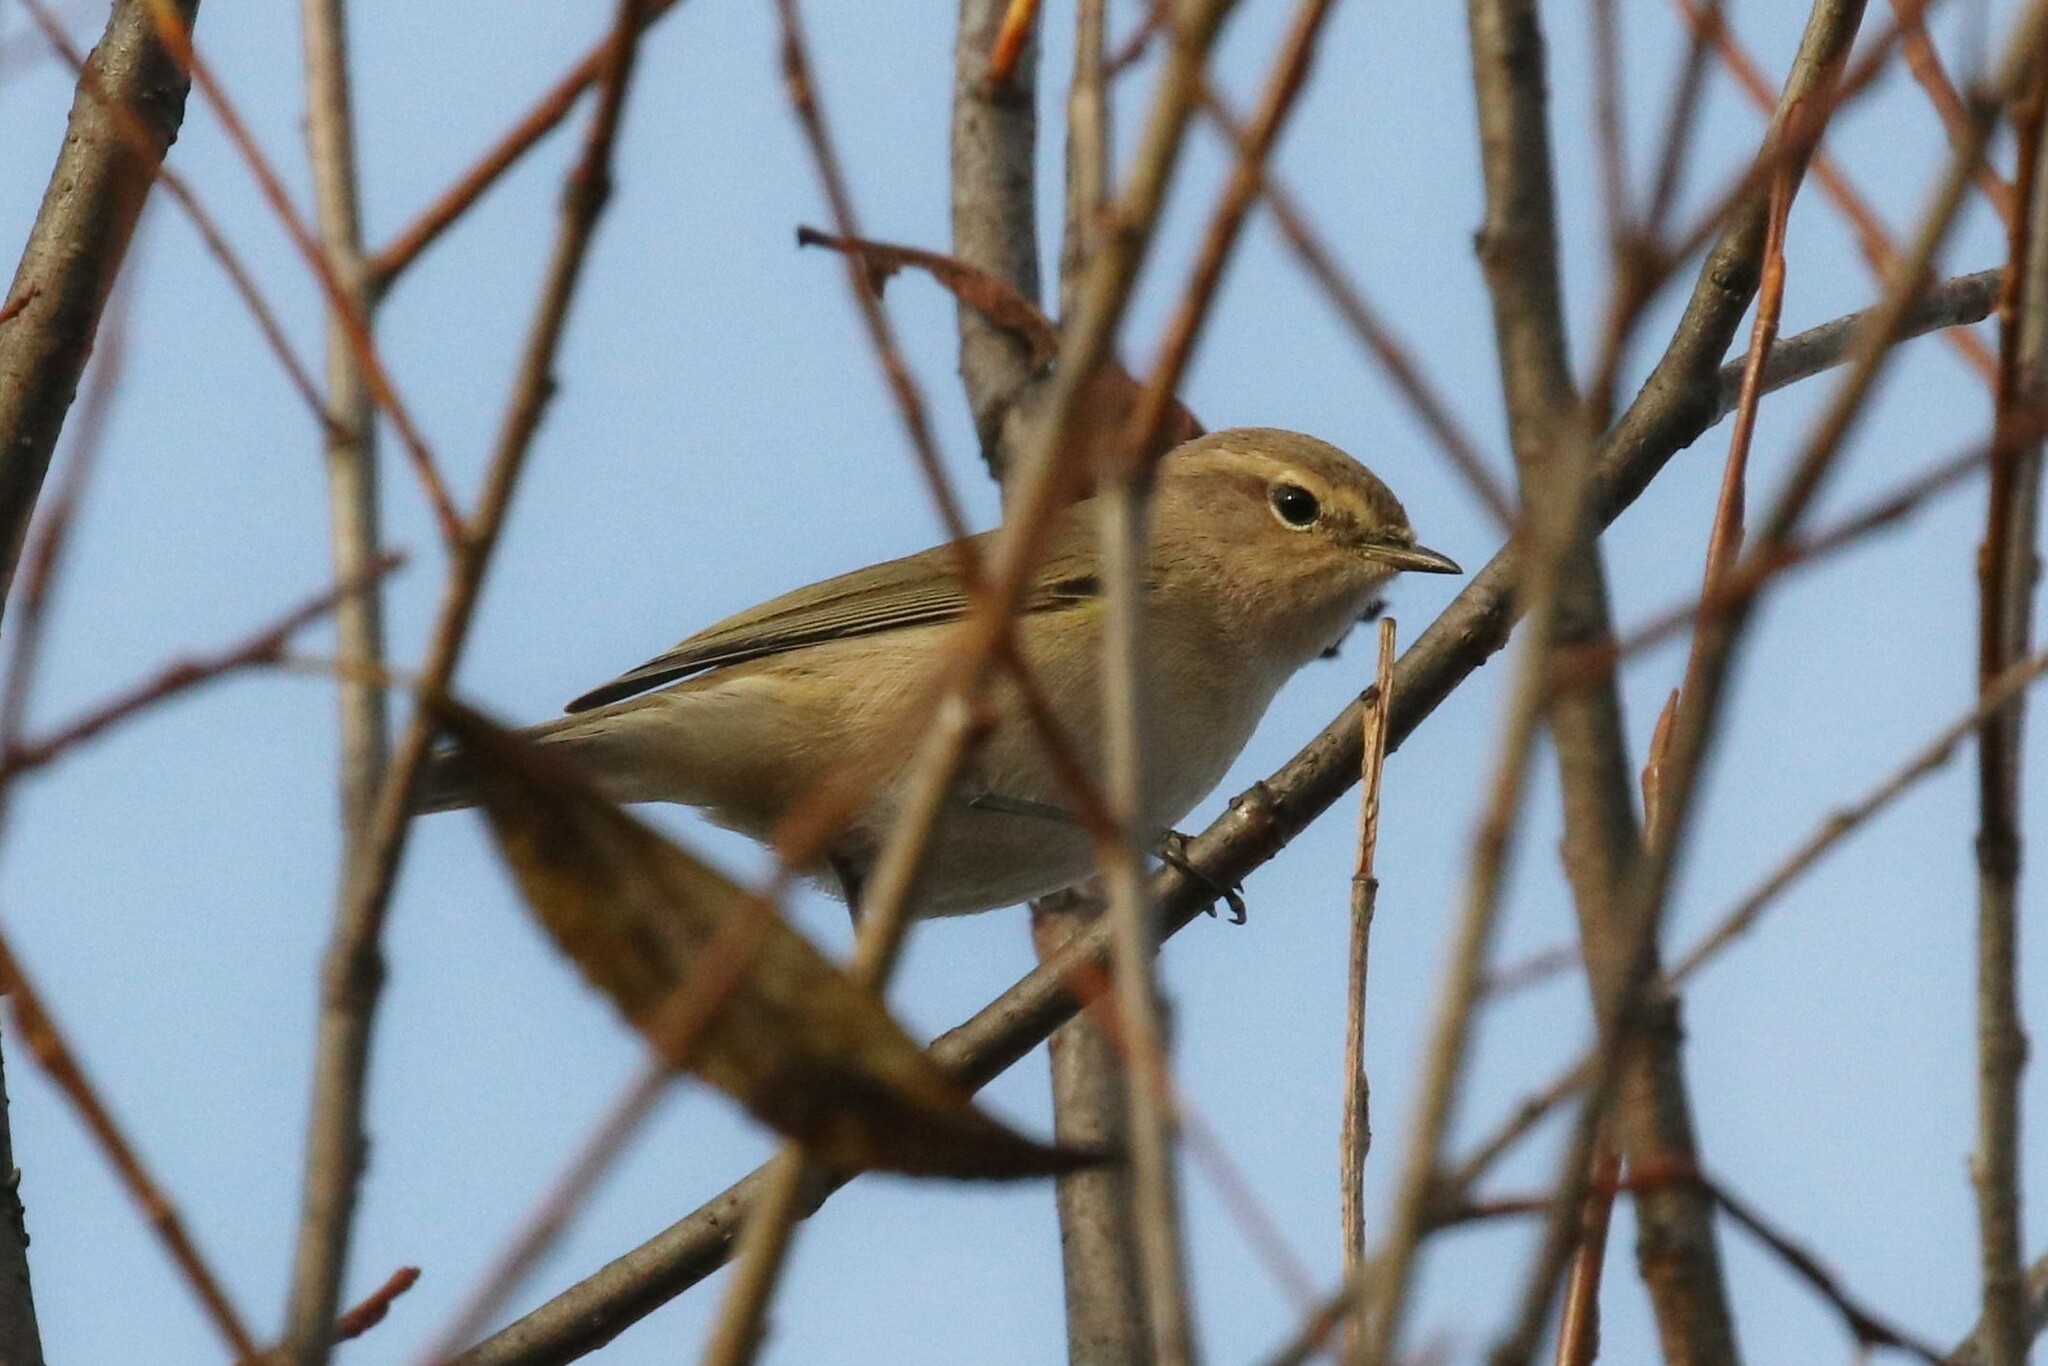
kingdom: Animalia
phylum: Chordata
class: Aves
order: Passeriformes
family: Phylloscopidae
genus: Phylloscopus
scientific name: Phylloscopus collybita
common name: Common chiffchaff
